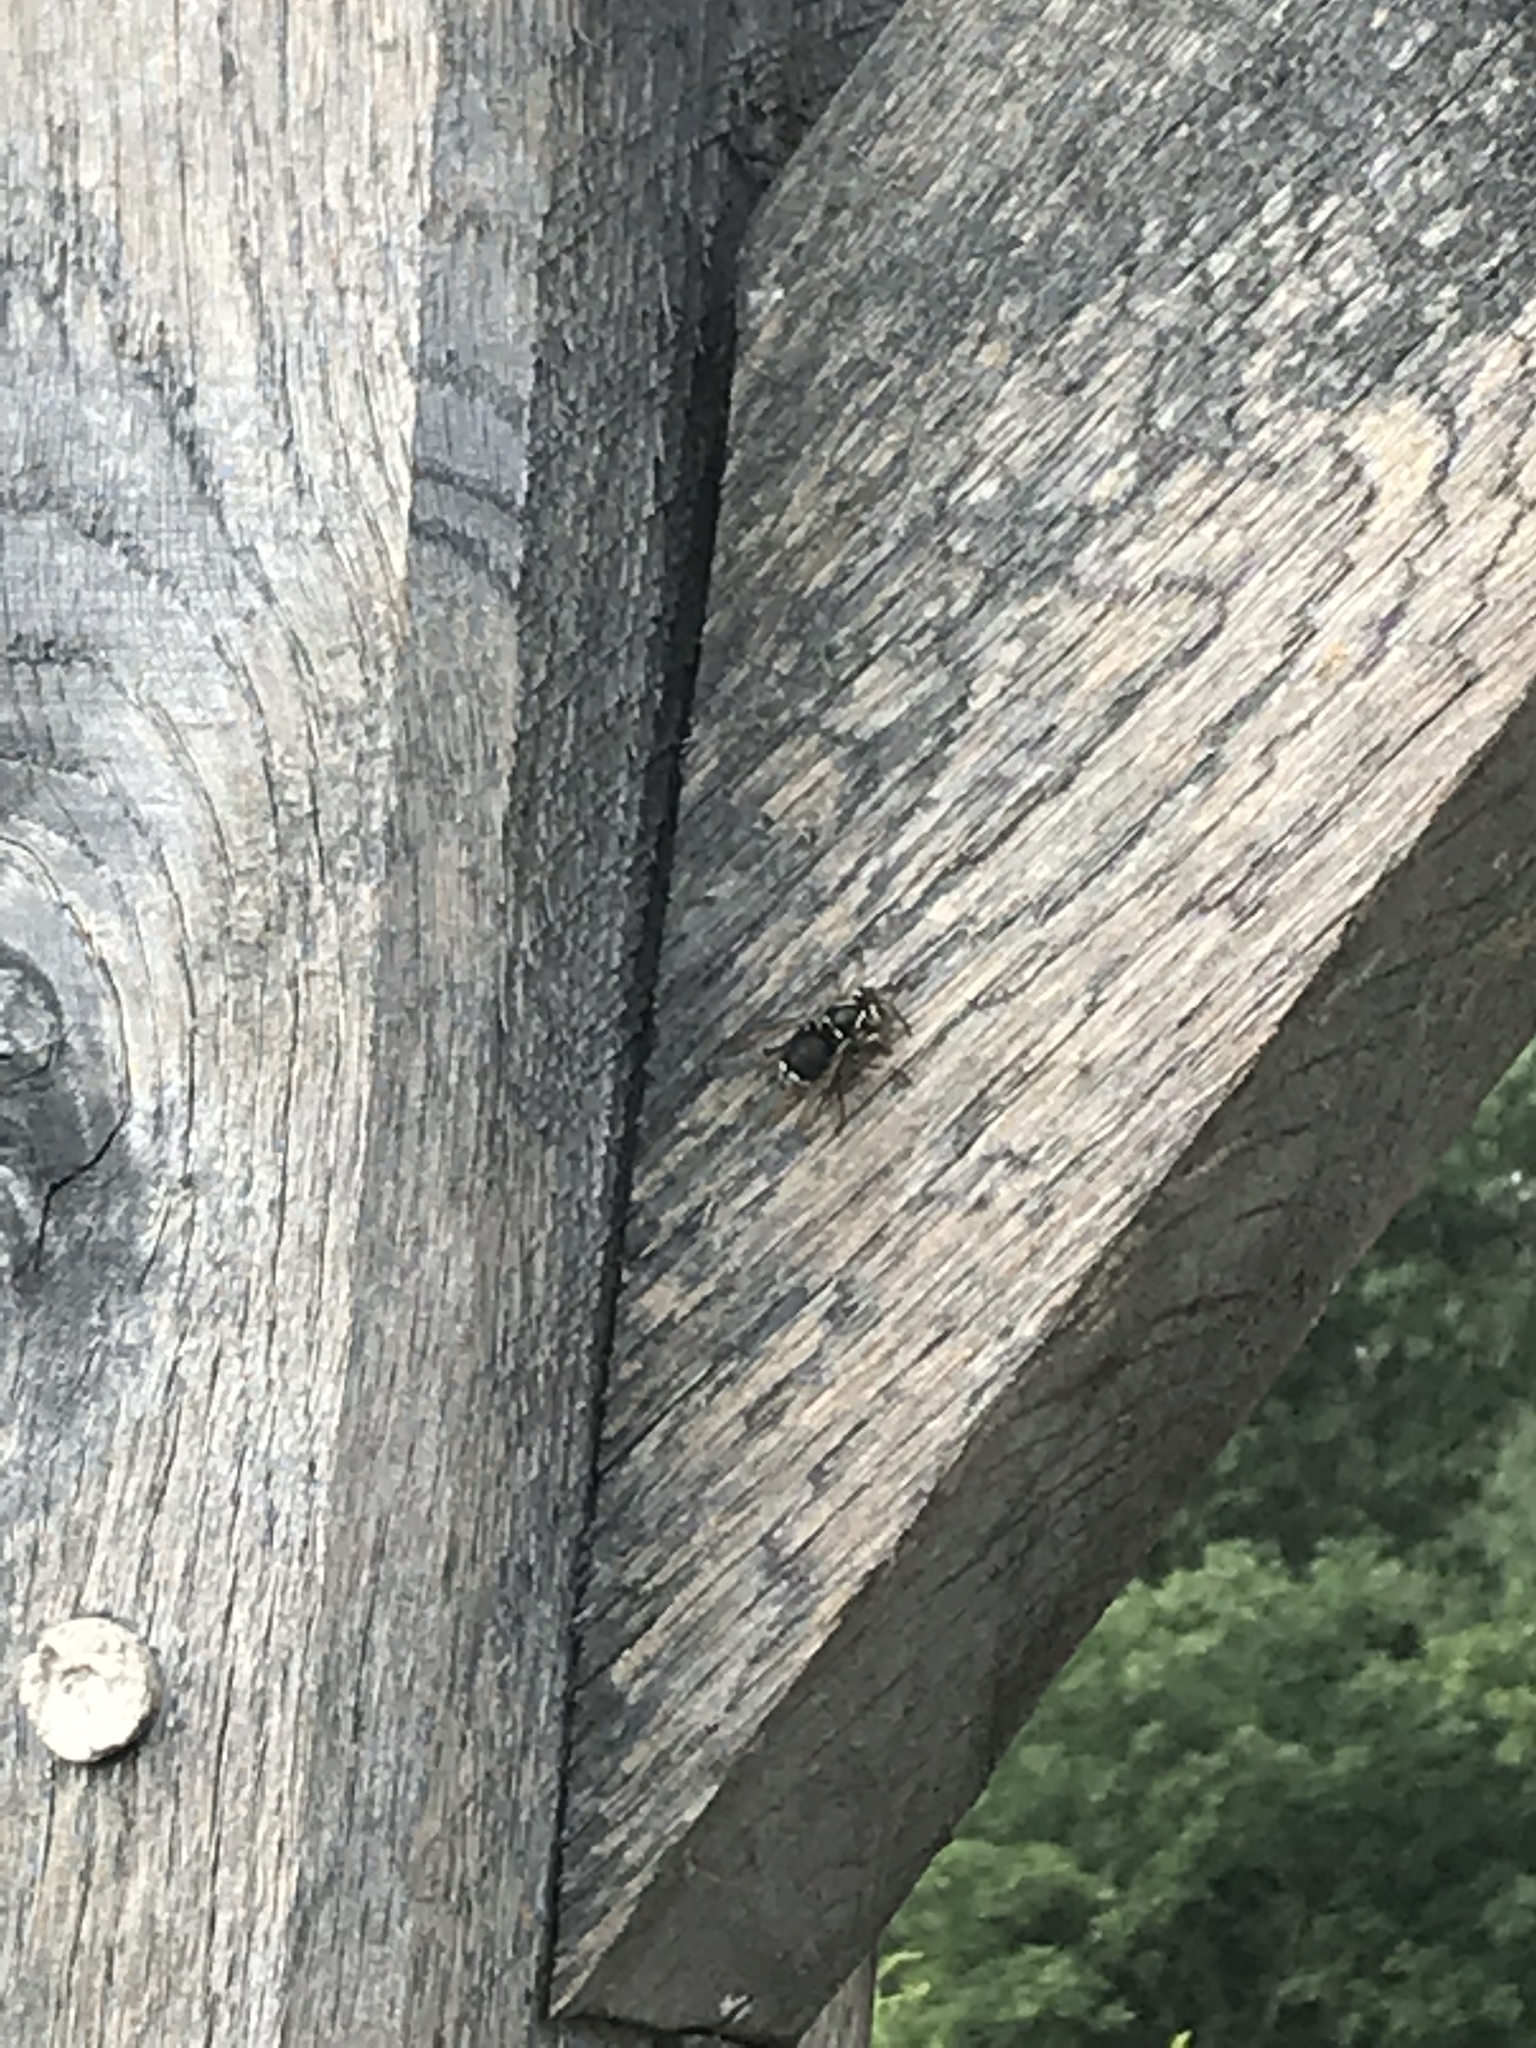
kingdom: Animalia
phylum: Arthropoda
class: Insecta
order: Hymenoptera
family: Vespidae
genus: Dolichovespula
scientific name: Dolichovespula maculata
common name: Bald-faced hornet
